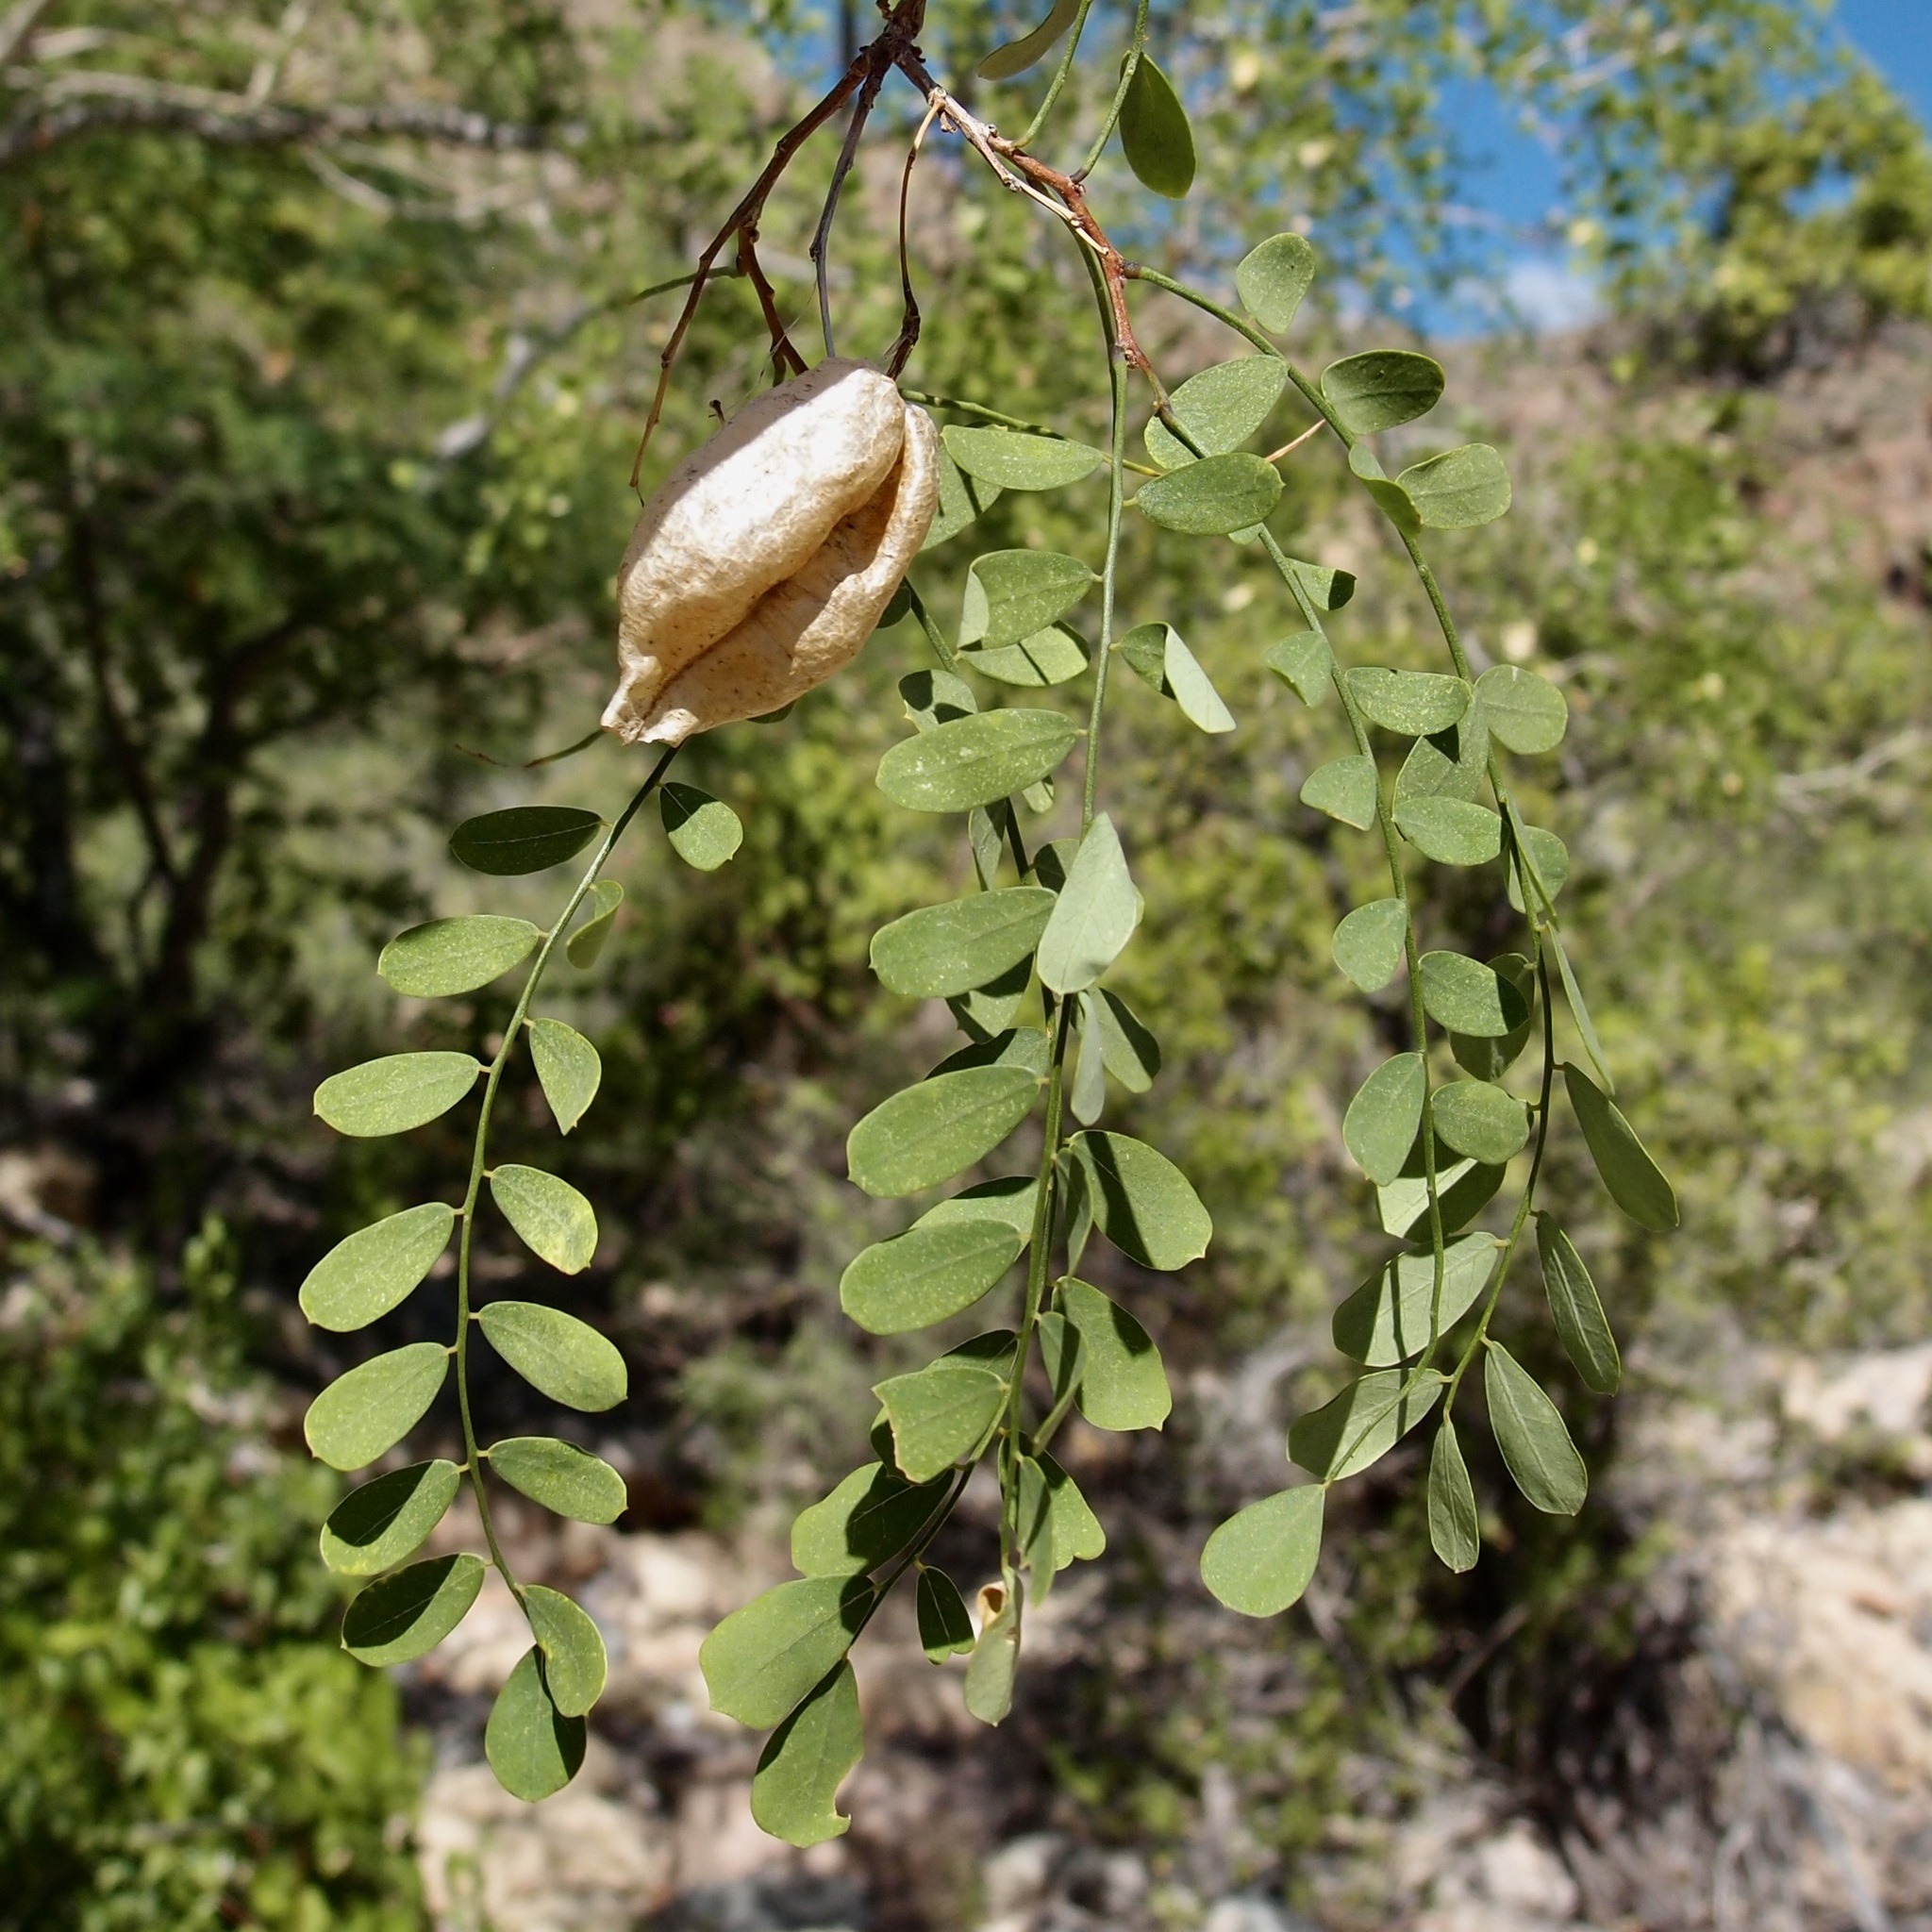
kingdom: Plantae
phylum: Tracheophyta
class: Magnoliopsida
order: Fabales
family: Fabaceae
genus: Diphysa
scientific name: Diphysa occidentalis
